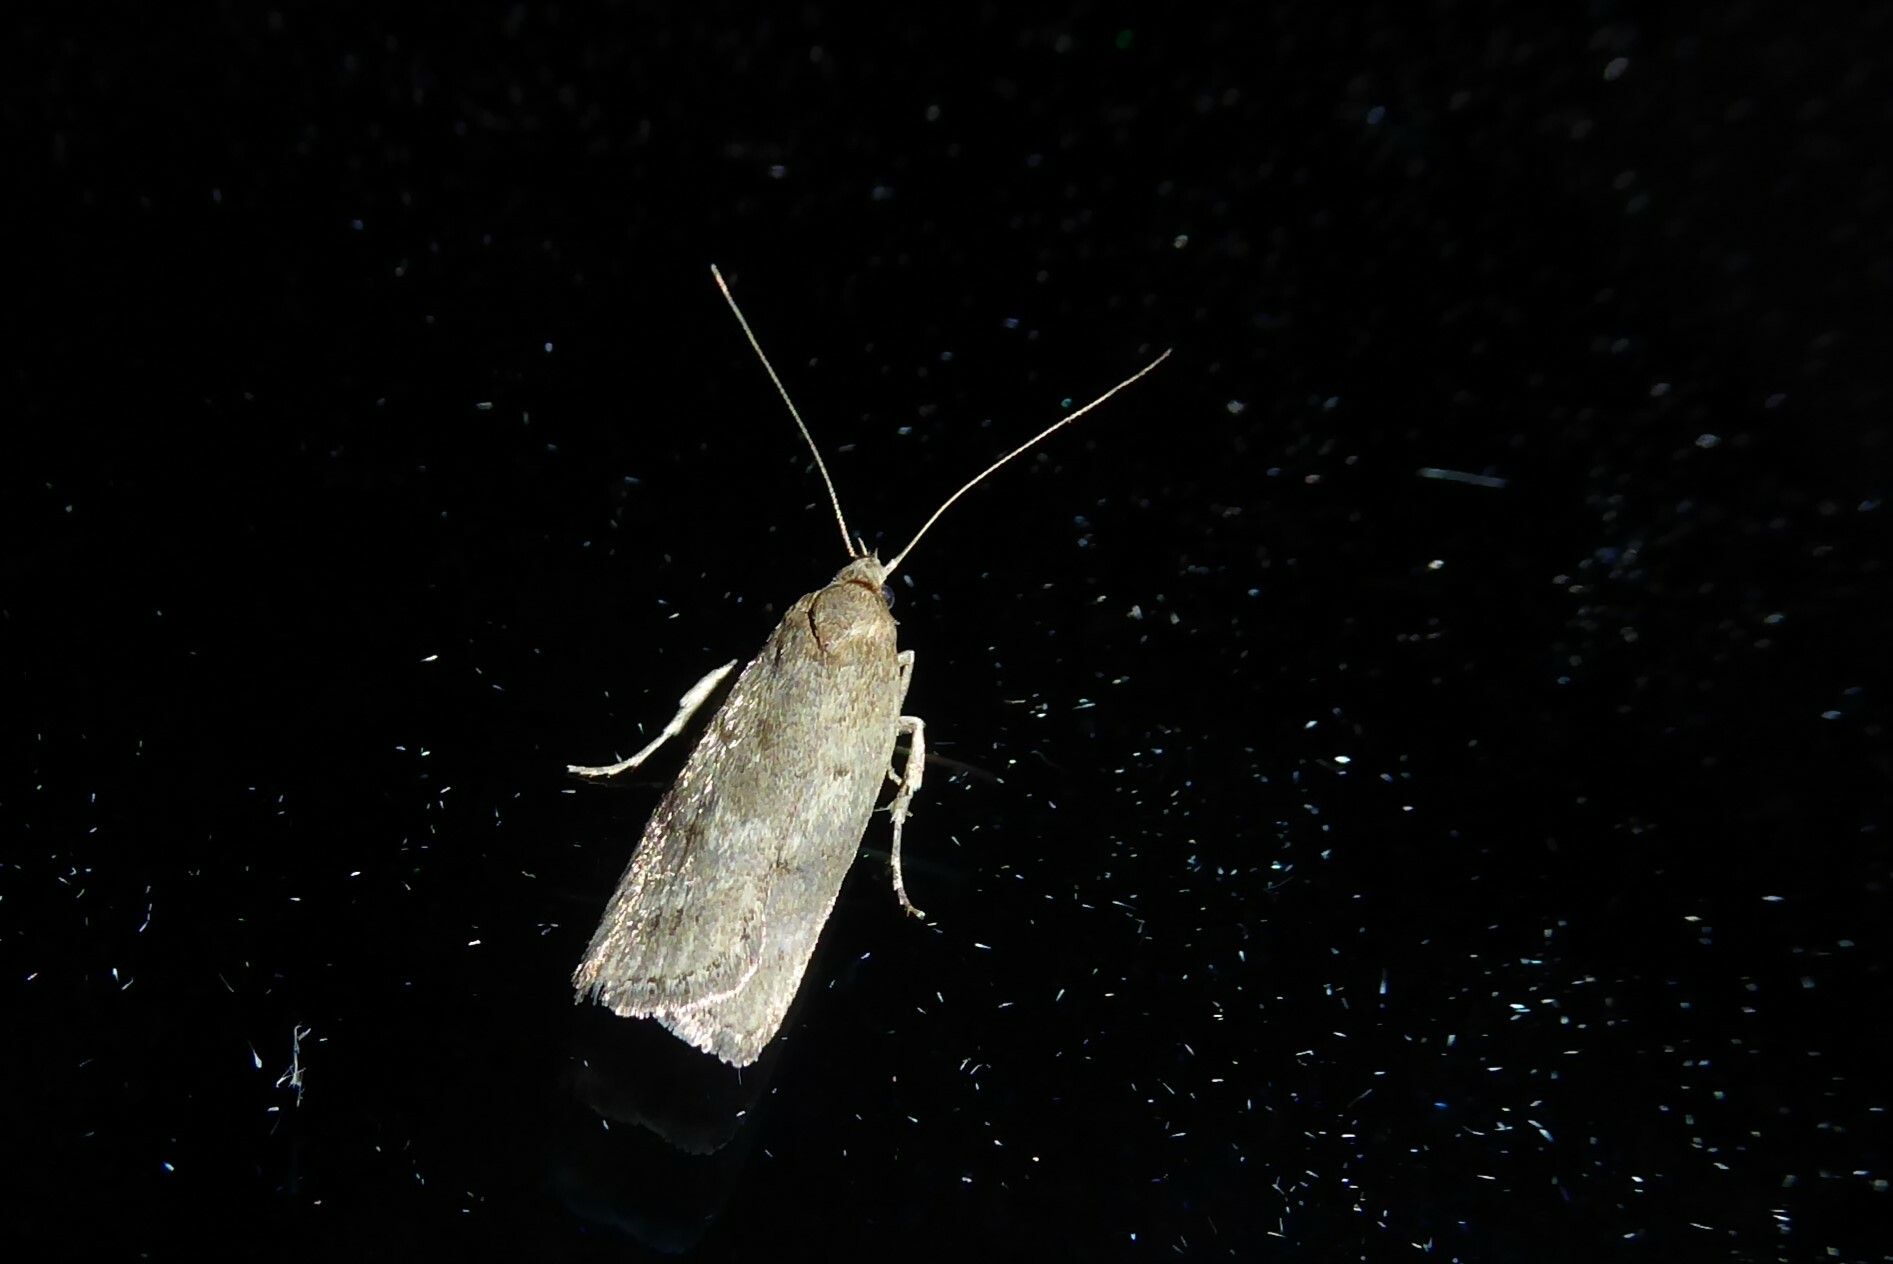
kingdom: Animalia
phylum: Arthropoda
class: Insecta
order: Lepidoptera
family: Depressariidae
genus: Phaeosaces
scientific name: Phaeosaces apocrypta
